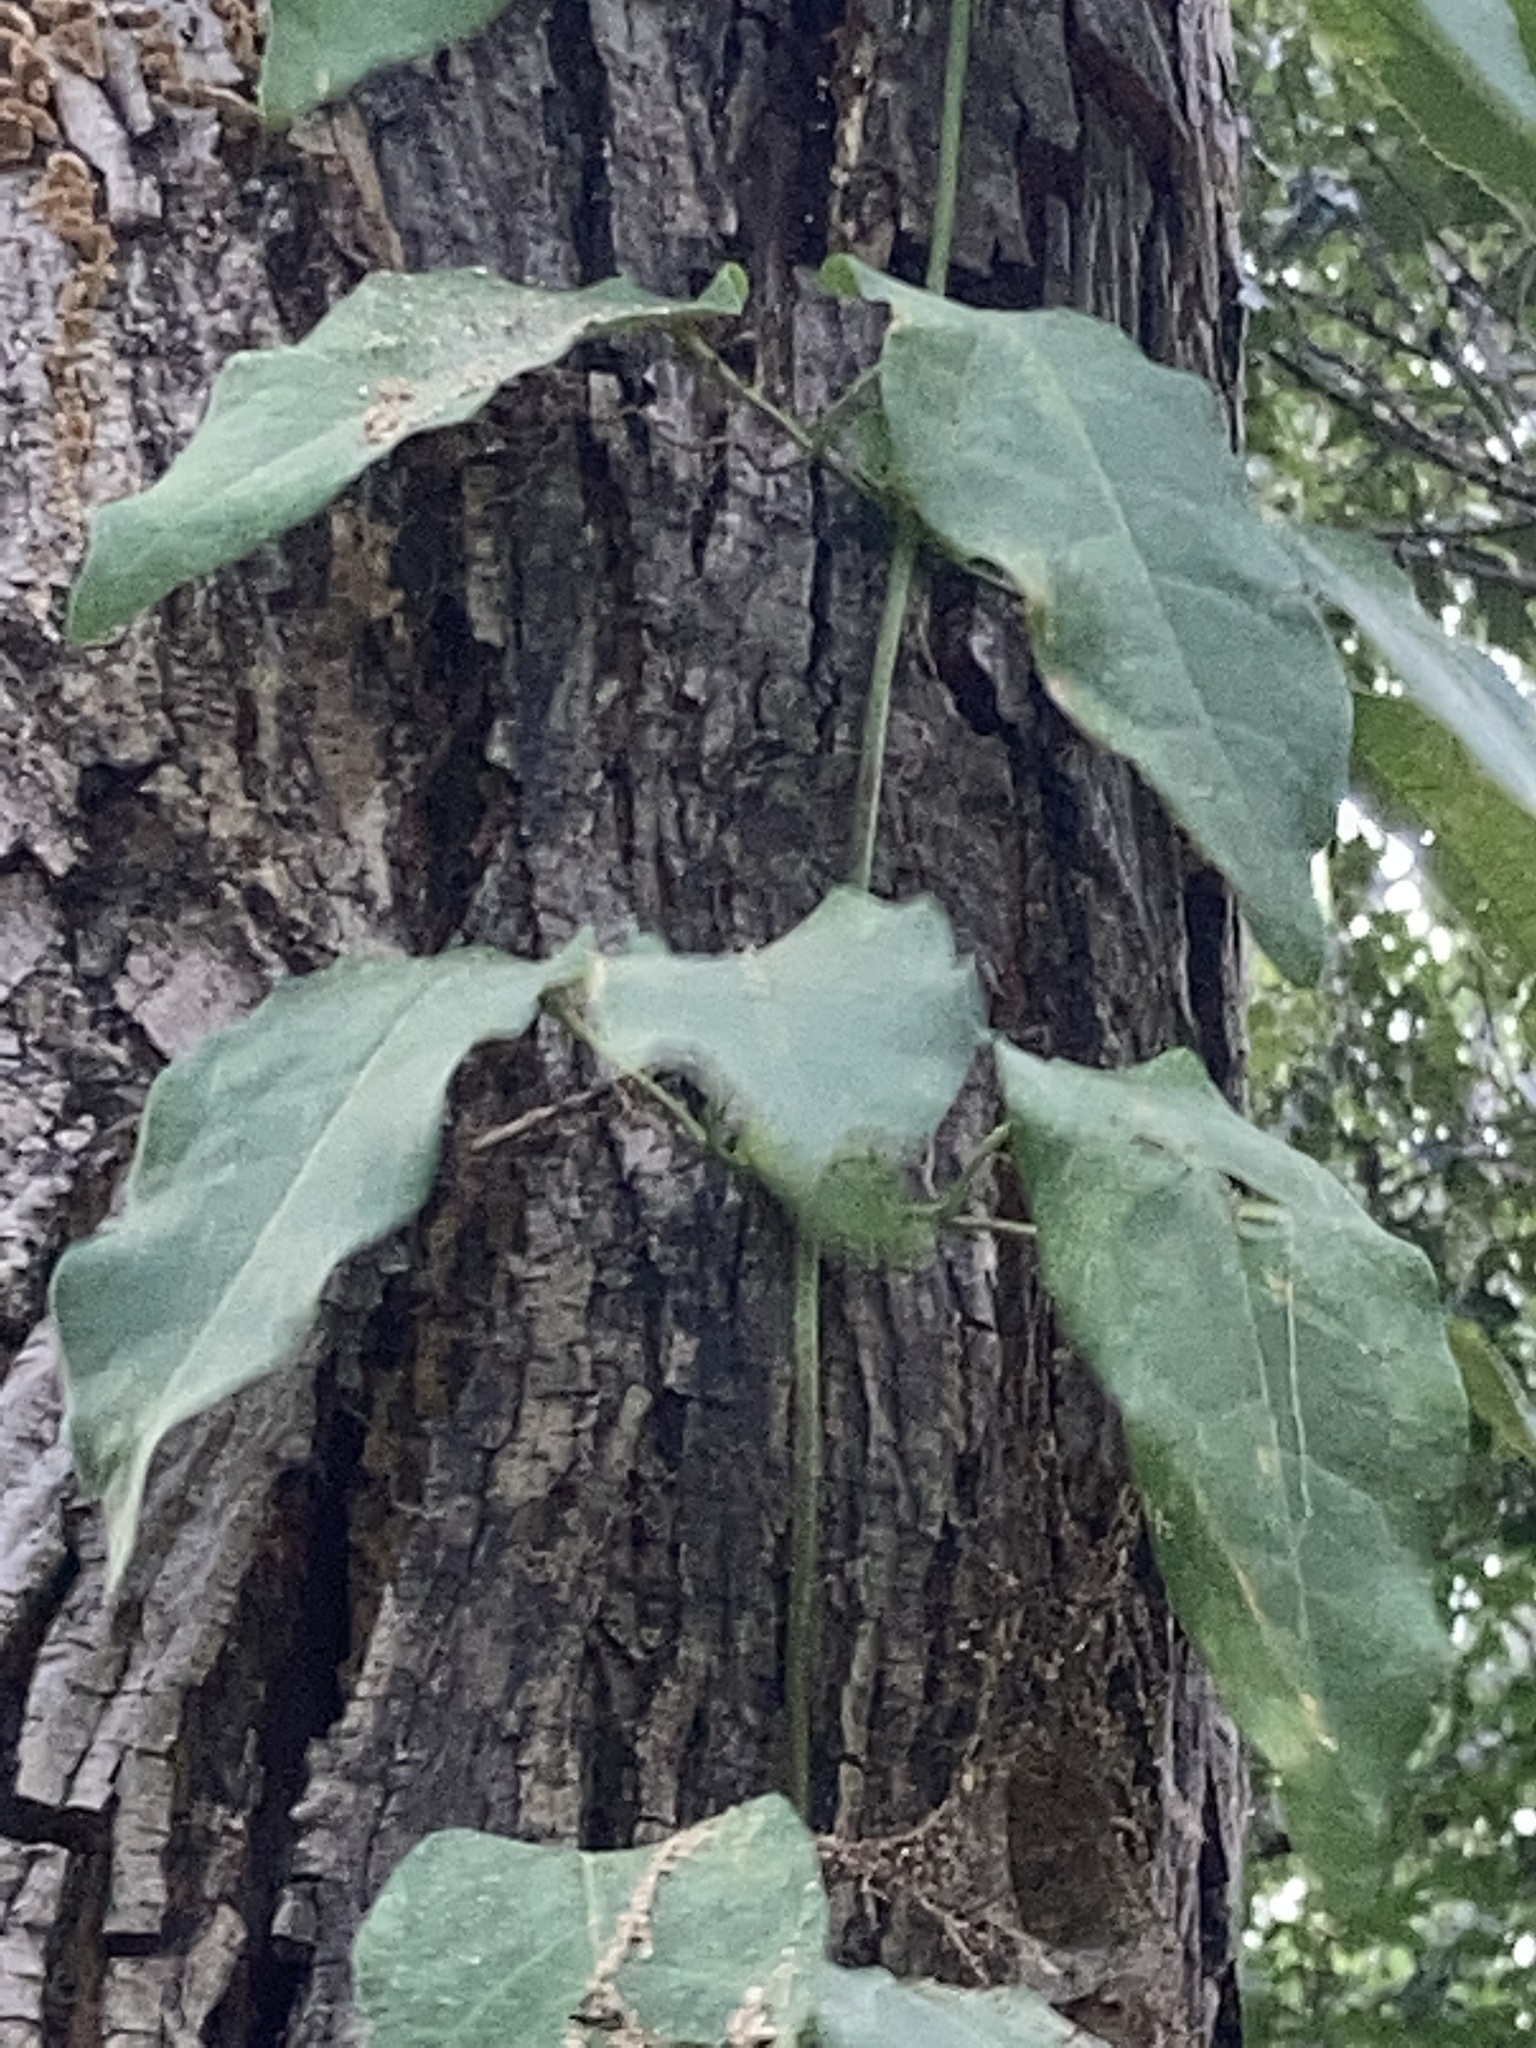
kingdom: Plantae
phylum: Tracheophyta
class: Magnoliopsida
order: Lamiales
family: Bignoniaceae
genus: Bignonia
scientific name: Bignonia capreolata
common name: Crossvine
